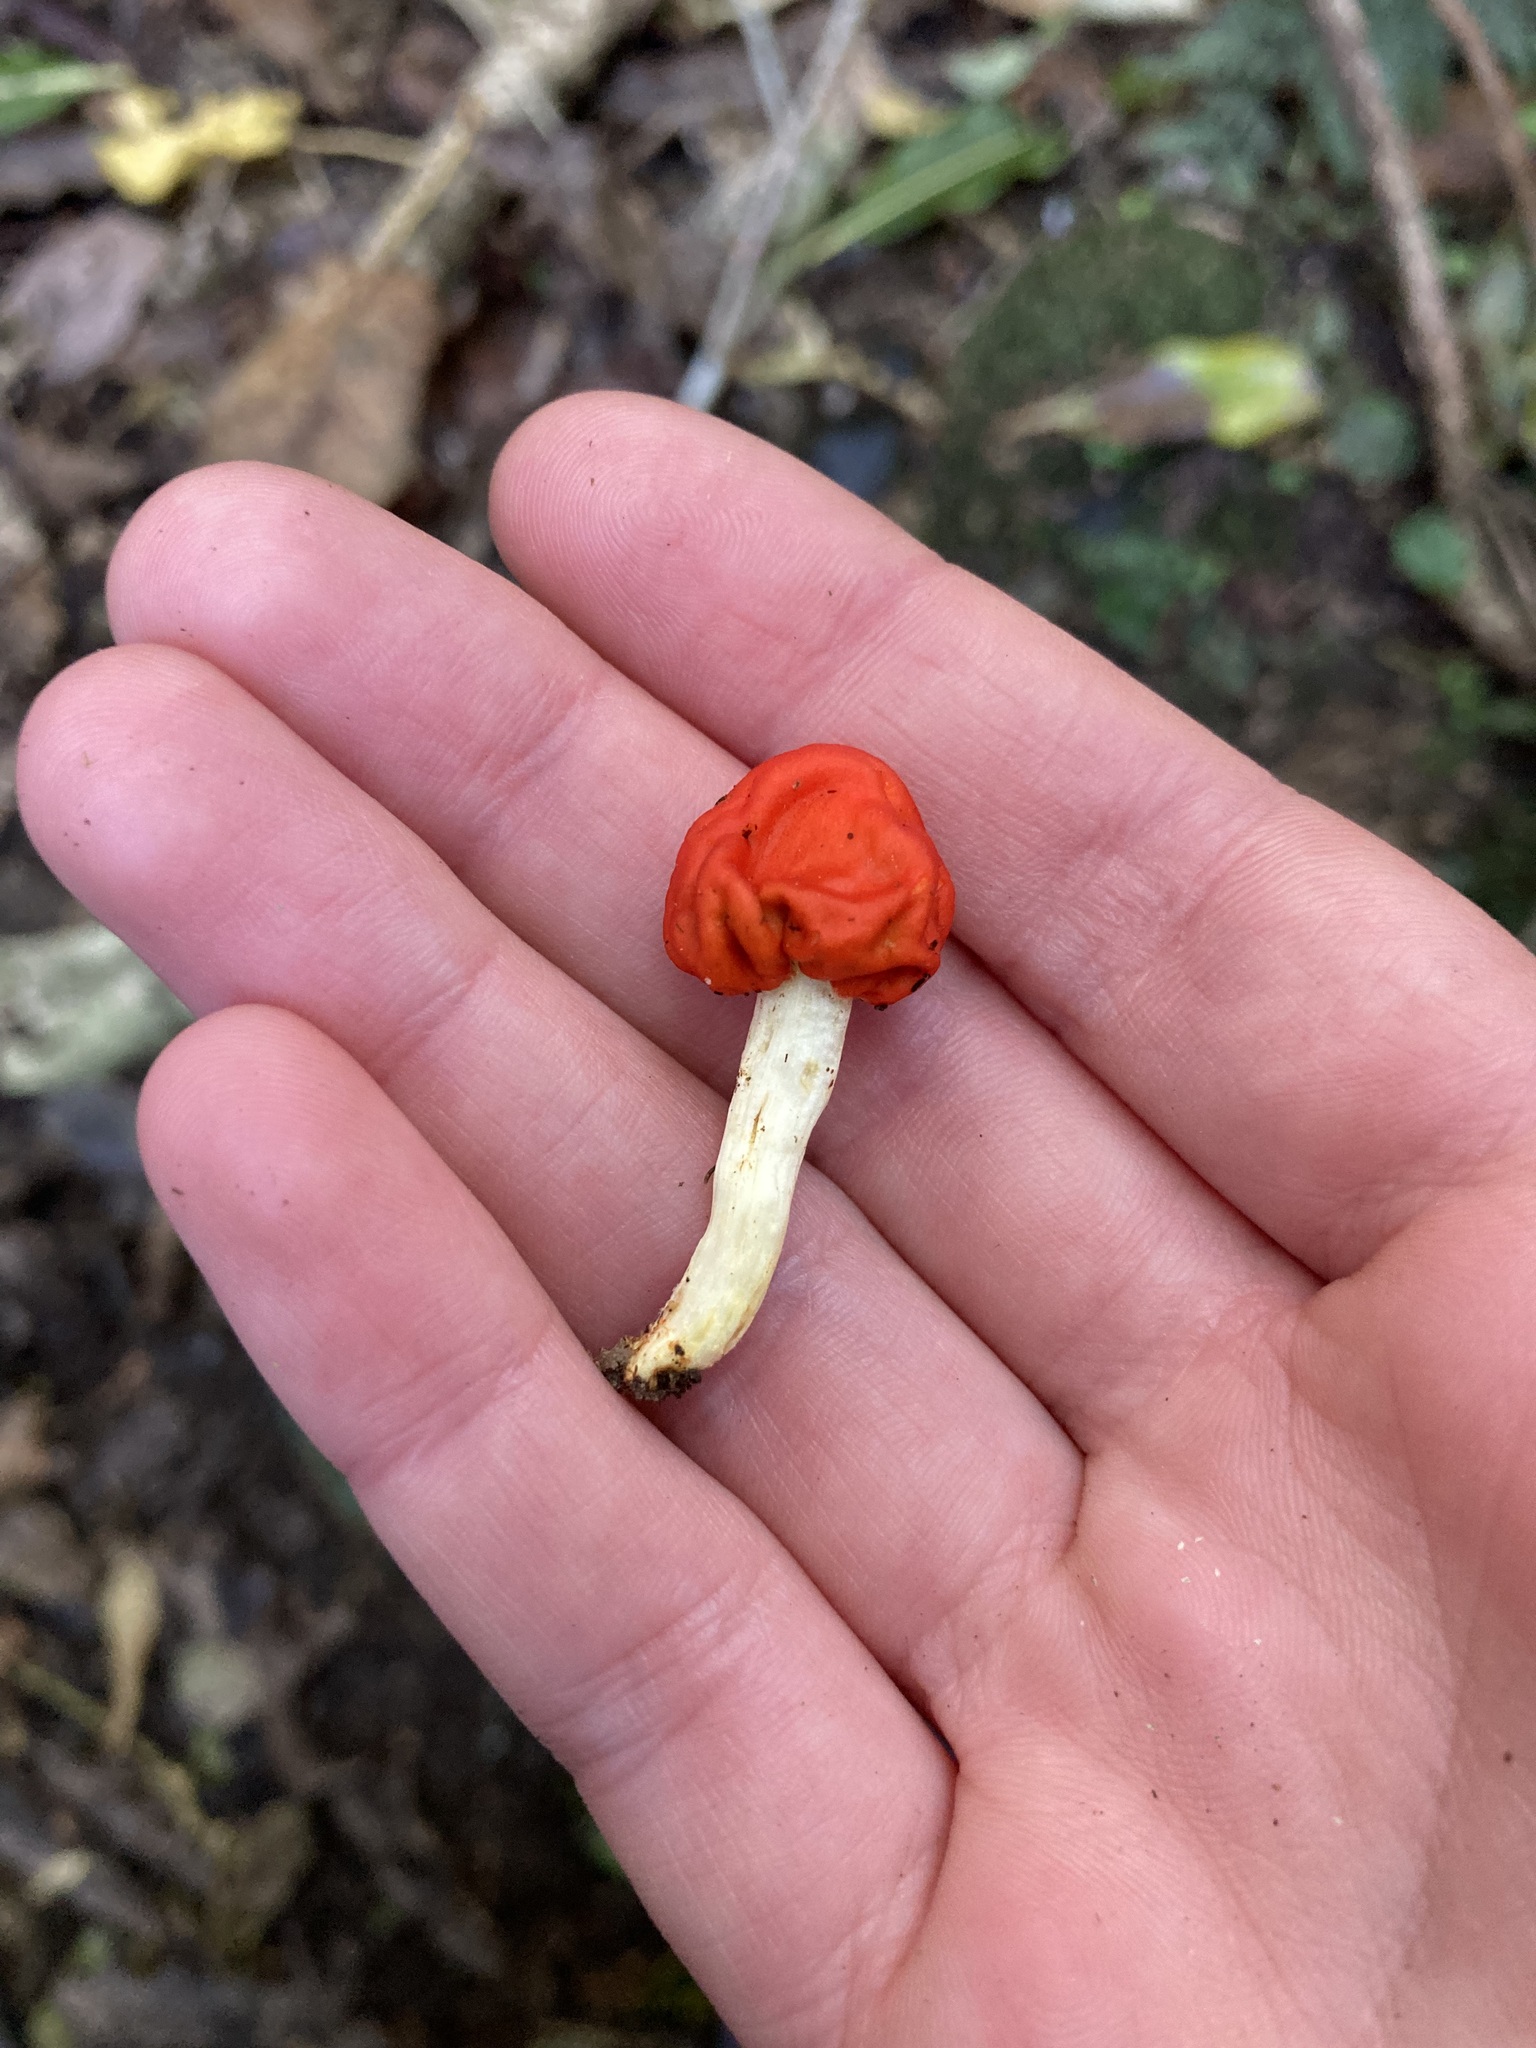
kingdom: Fungi
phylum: Basidiomycota
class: Agaricomycetes
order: Agaricales
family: Strophariaceae
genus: Leratiomyces
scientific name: Leratiomyces erythrocephalus
